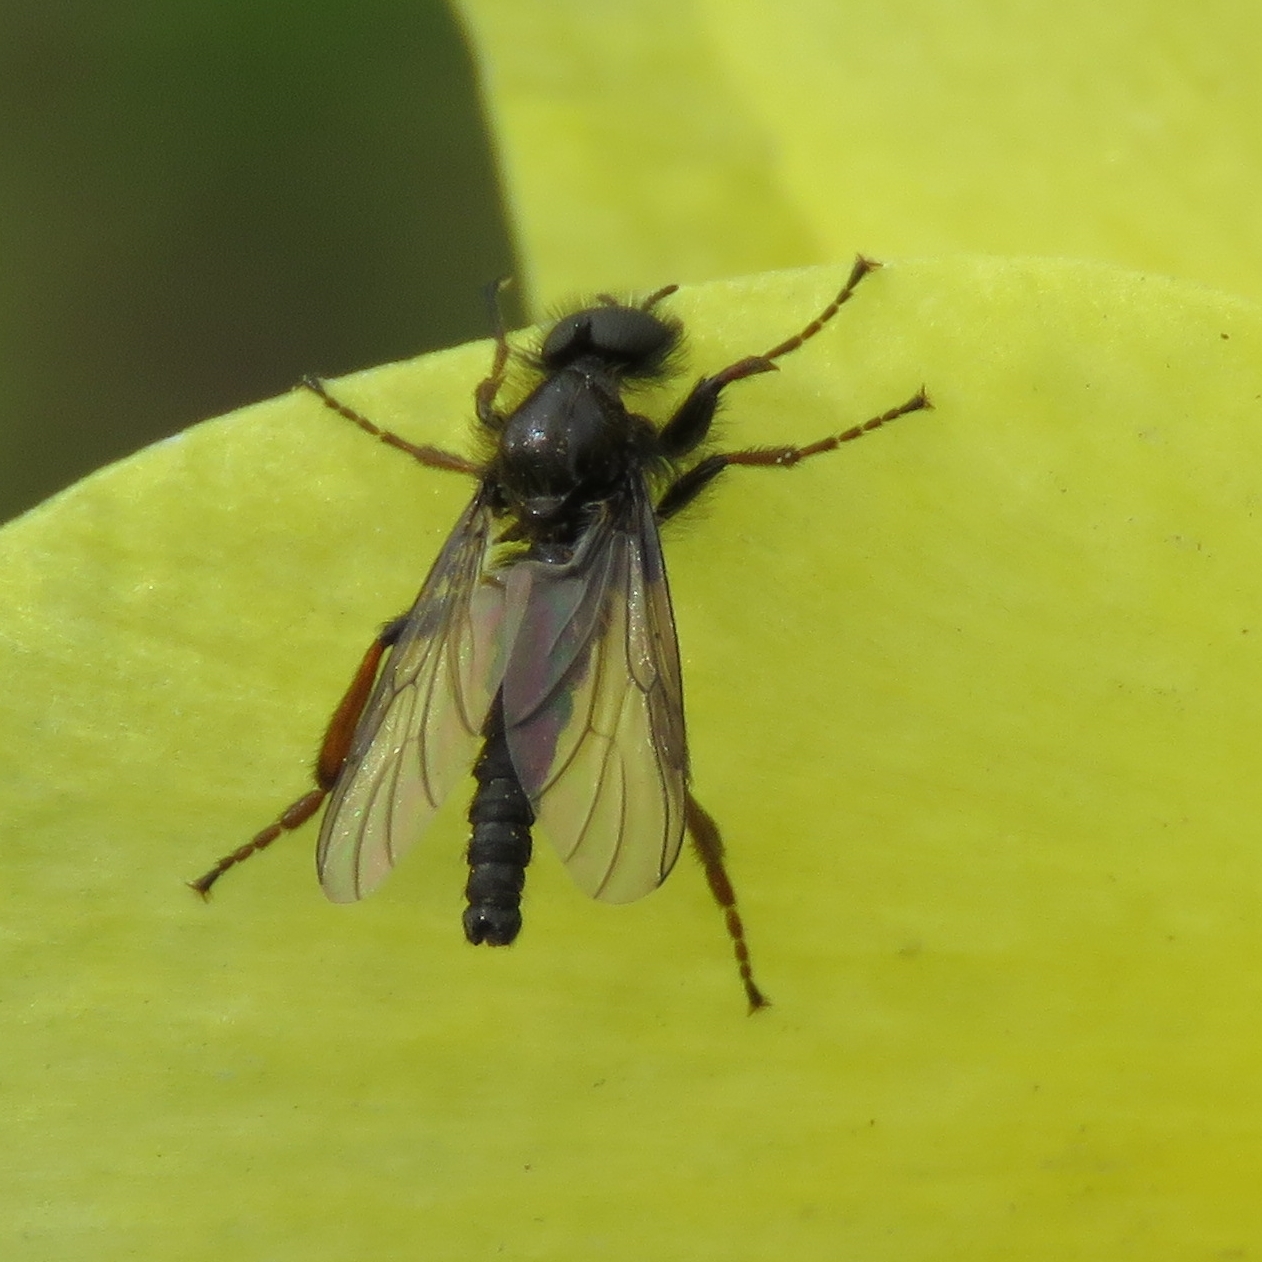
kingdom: Animalia
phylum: Arthropoda
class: Insecta
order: Diptera
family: Bibionidae
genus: Bibio
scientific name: Bibio lanigerus
